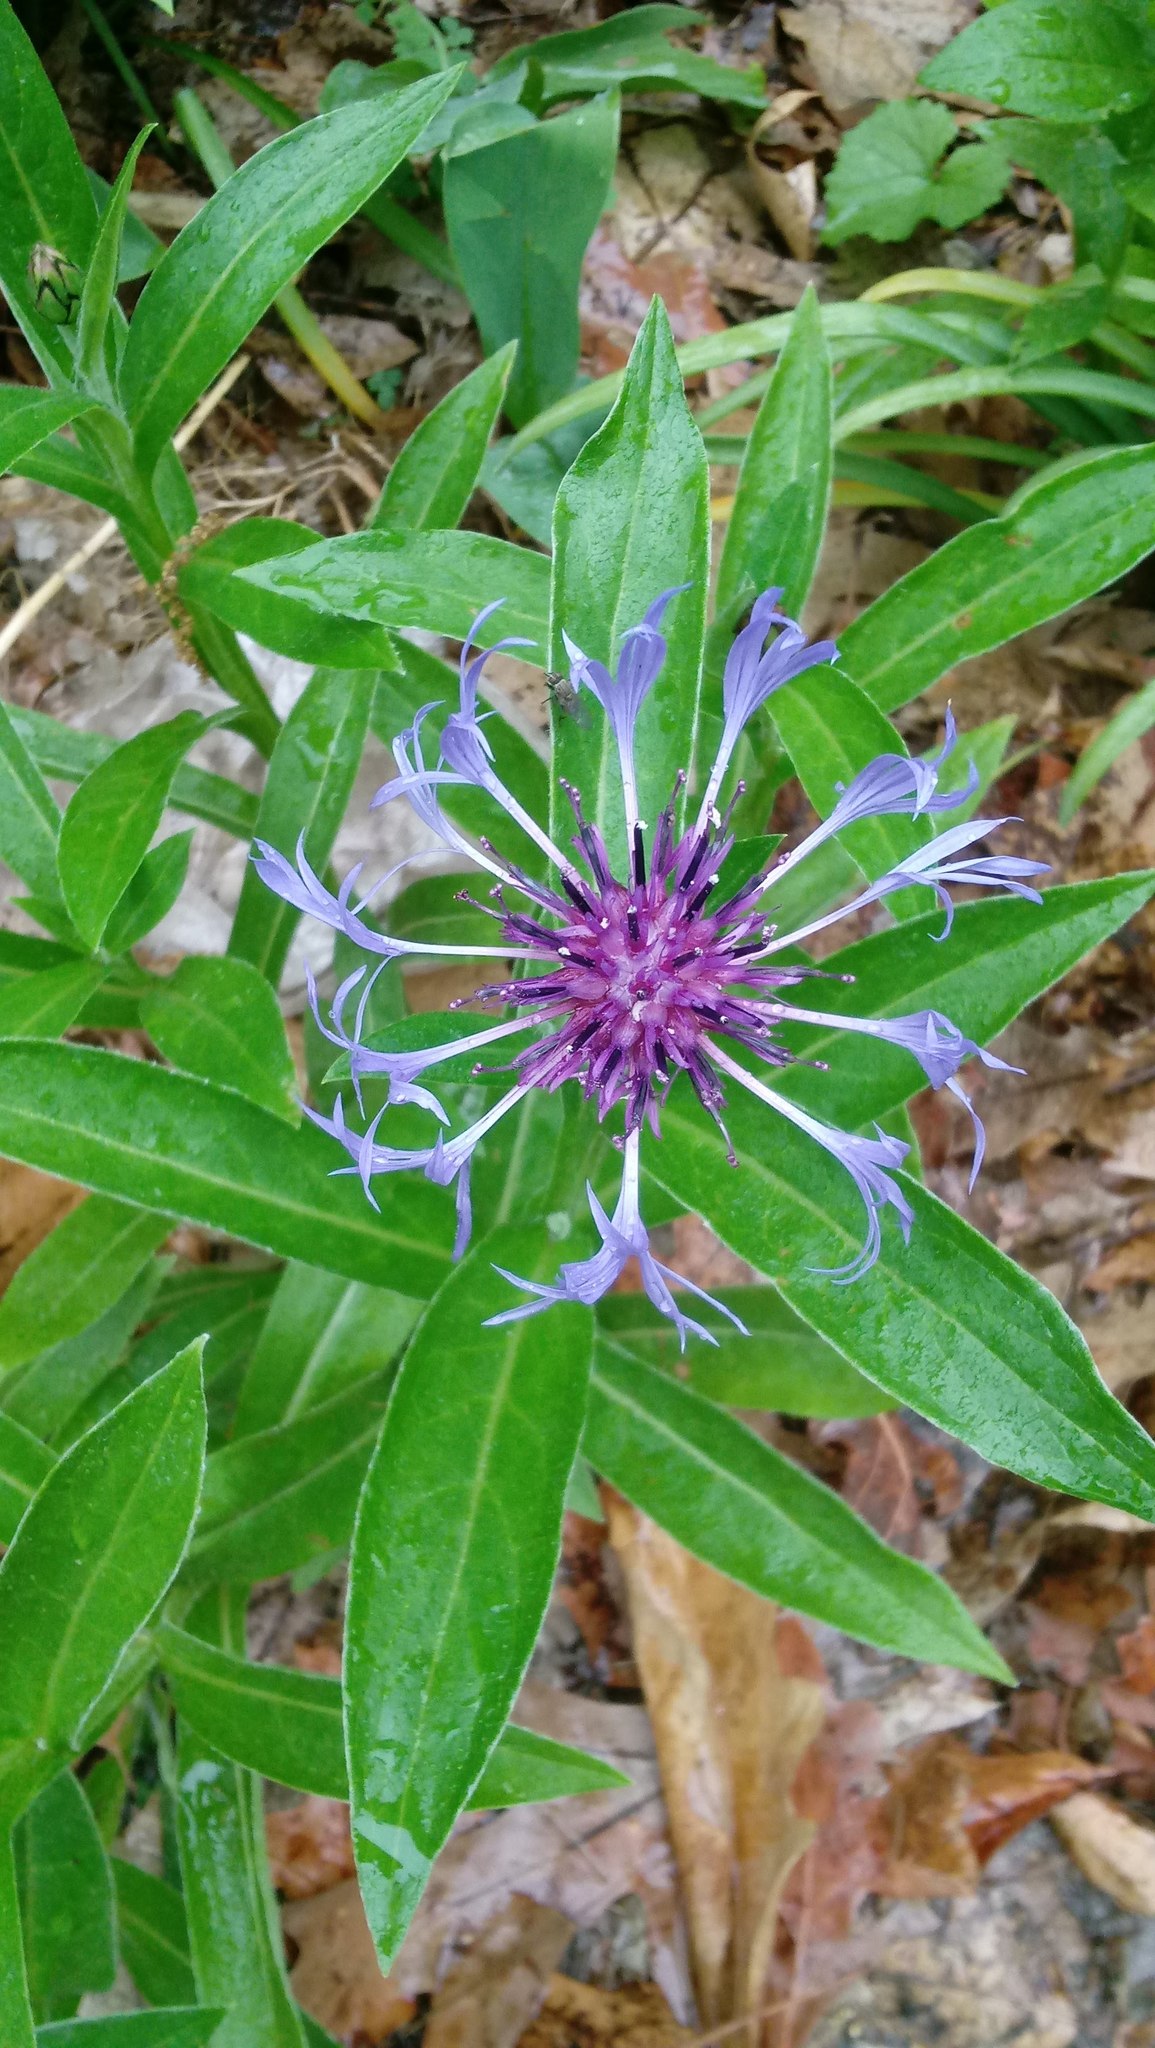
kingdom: Plantae
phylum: Tracheophyta
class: Magnoliopsida
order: Asterales
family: Asteraceae
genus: Centaurea
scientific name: Centaurea montana
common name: Perennial cornflower
